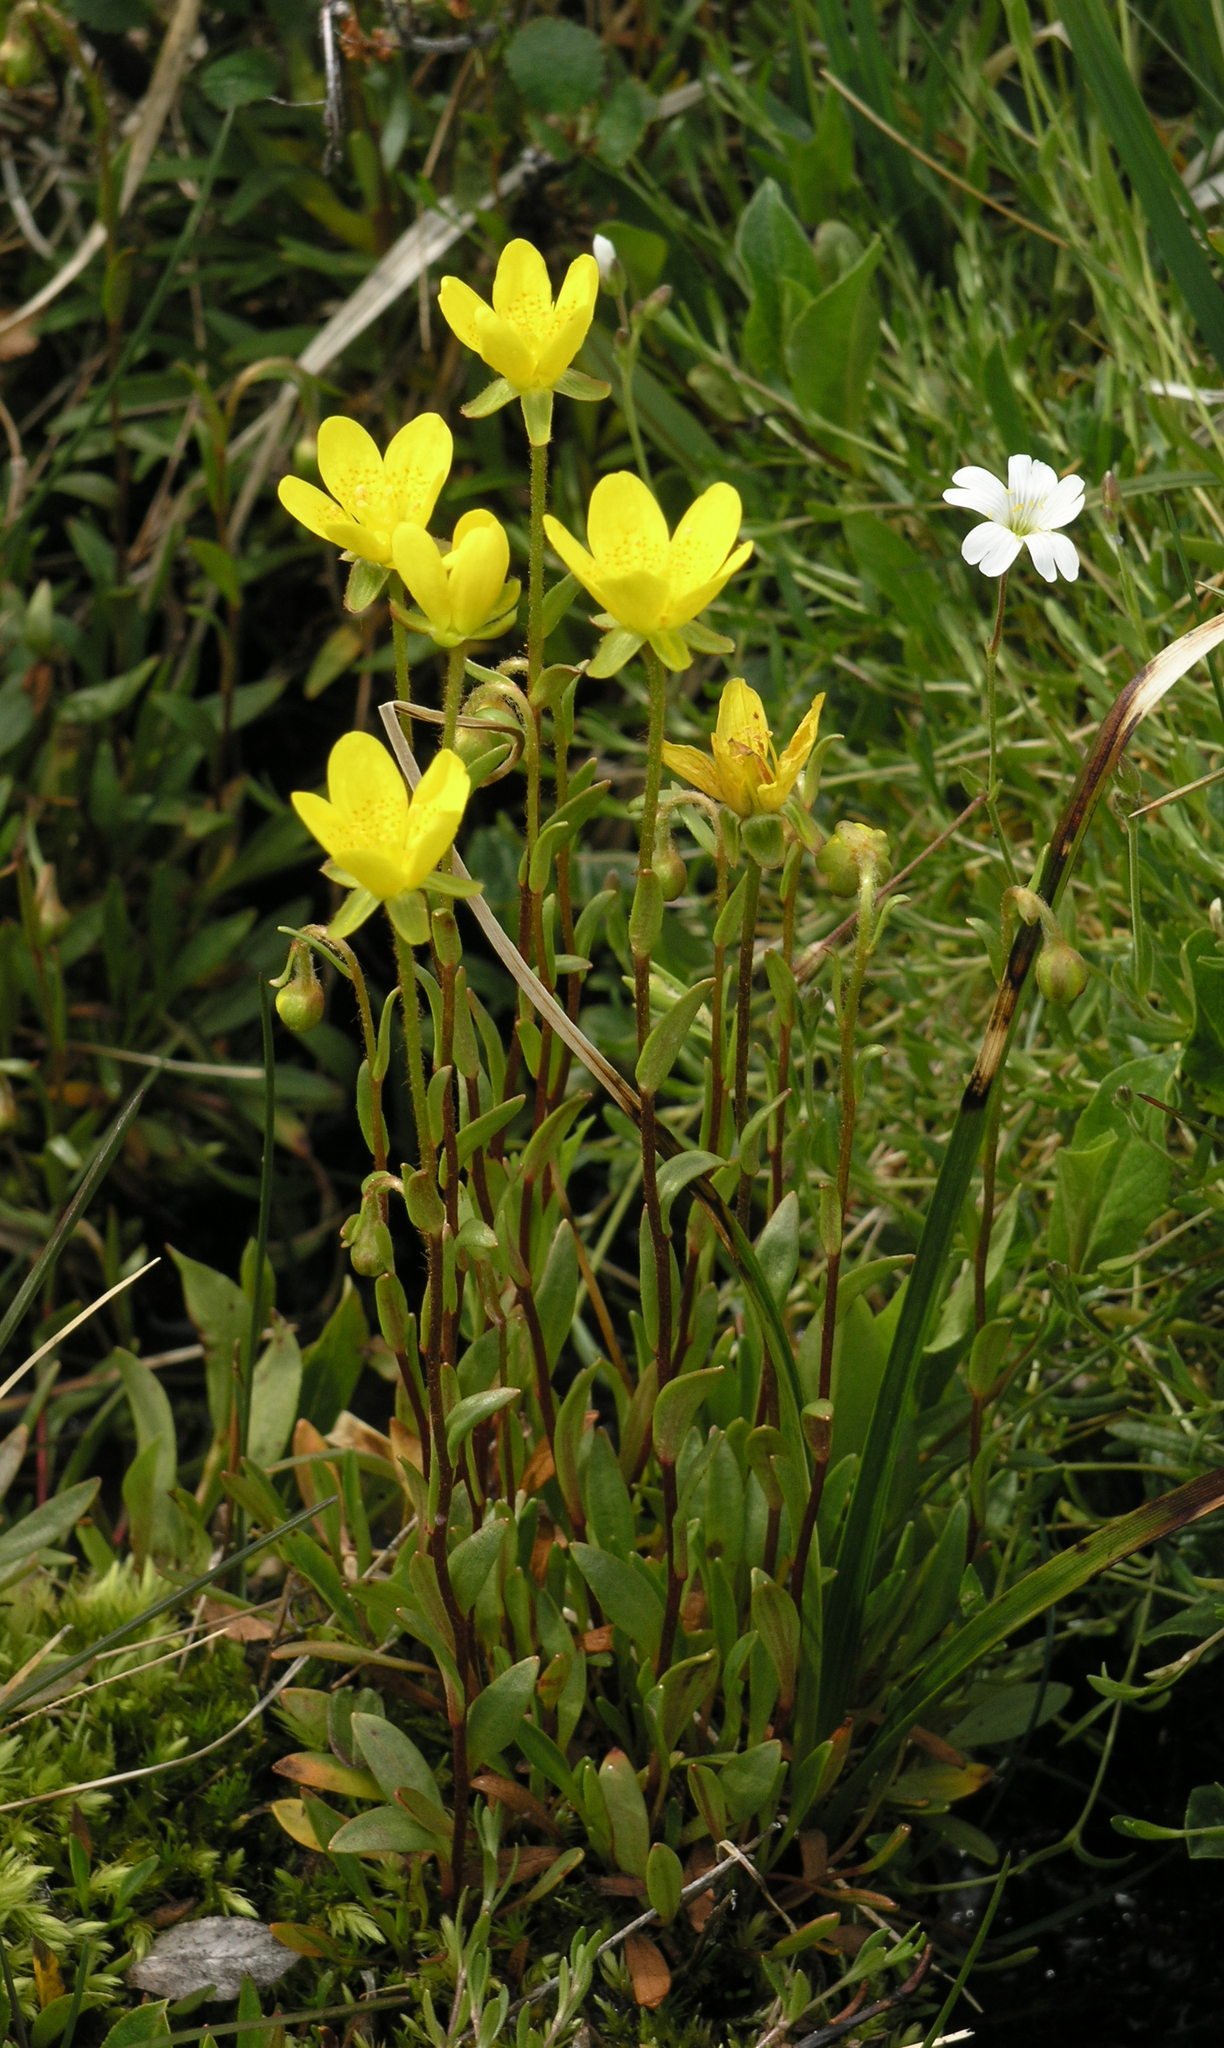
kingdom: Plantae
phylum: Tracheophyta
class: Magnoliopsida
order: Saxifragales
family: Saxifragaceae
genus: Saxifraga
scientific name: Saxifraga hirculus
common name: Yellow marsh saxifrage
